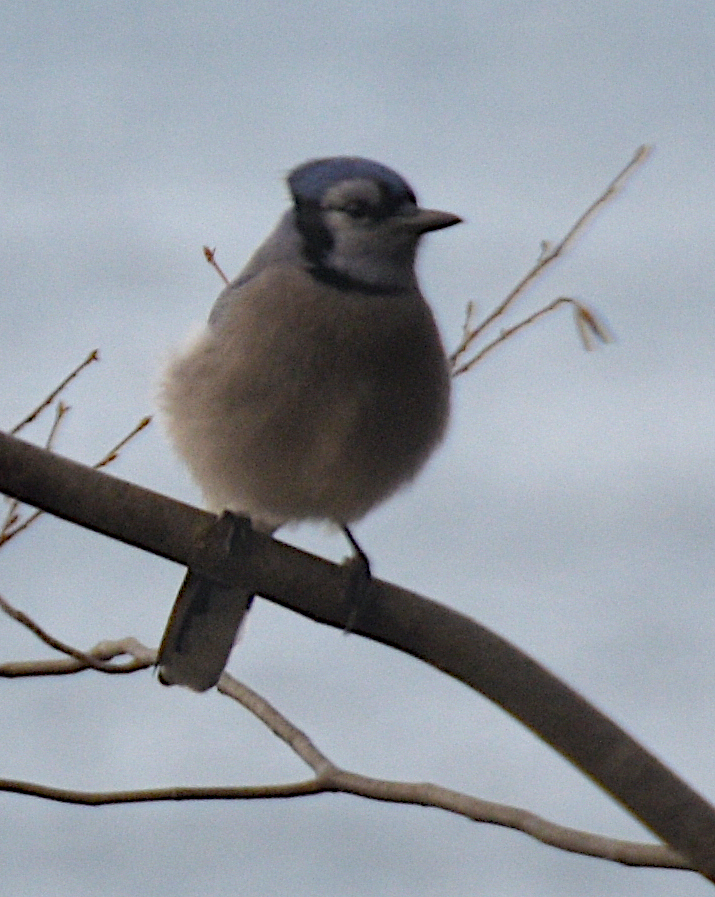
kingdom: Animalia
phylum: Chordata
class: Aves
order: Passeriformes
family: Corvidae
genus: Cyanocitta
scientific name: Cyanocitta cristata
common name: Blue jay
